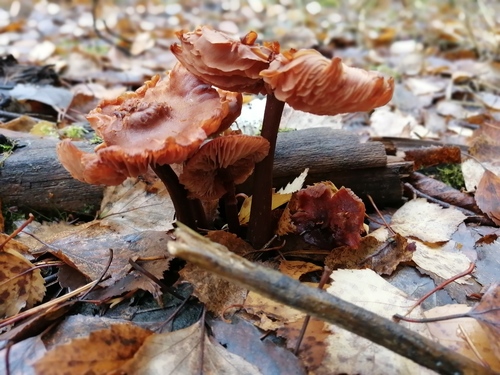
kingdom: Fungi
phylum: Basidiomycota
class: Agaricomycetes
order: Agaricales
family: Hydnangiaceae
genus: Laccaria
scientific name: Laccaria laccata
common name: Deceiver
